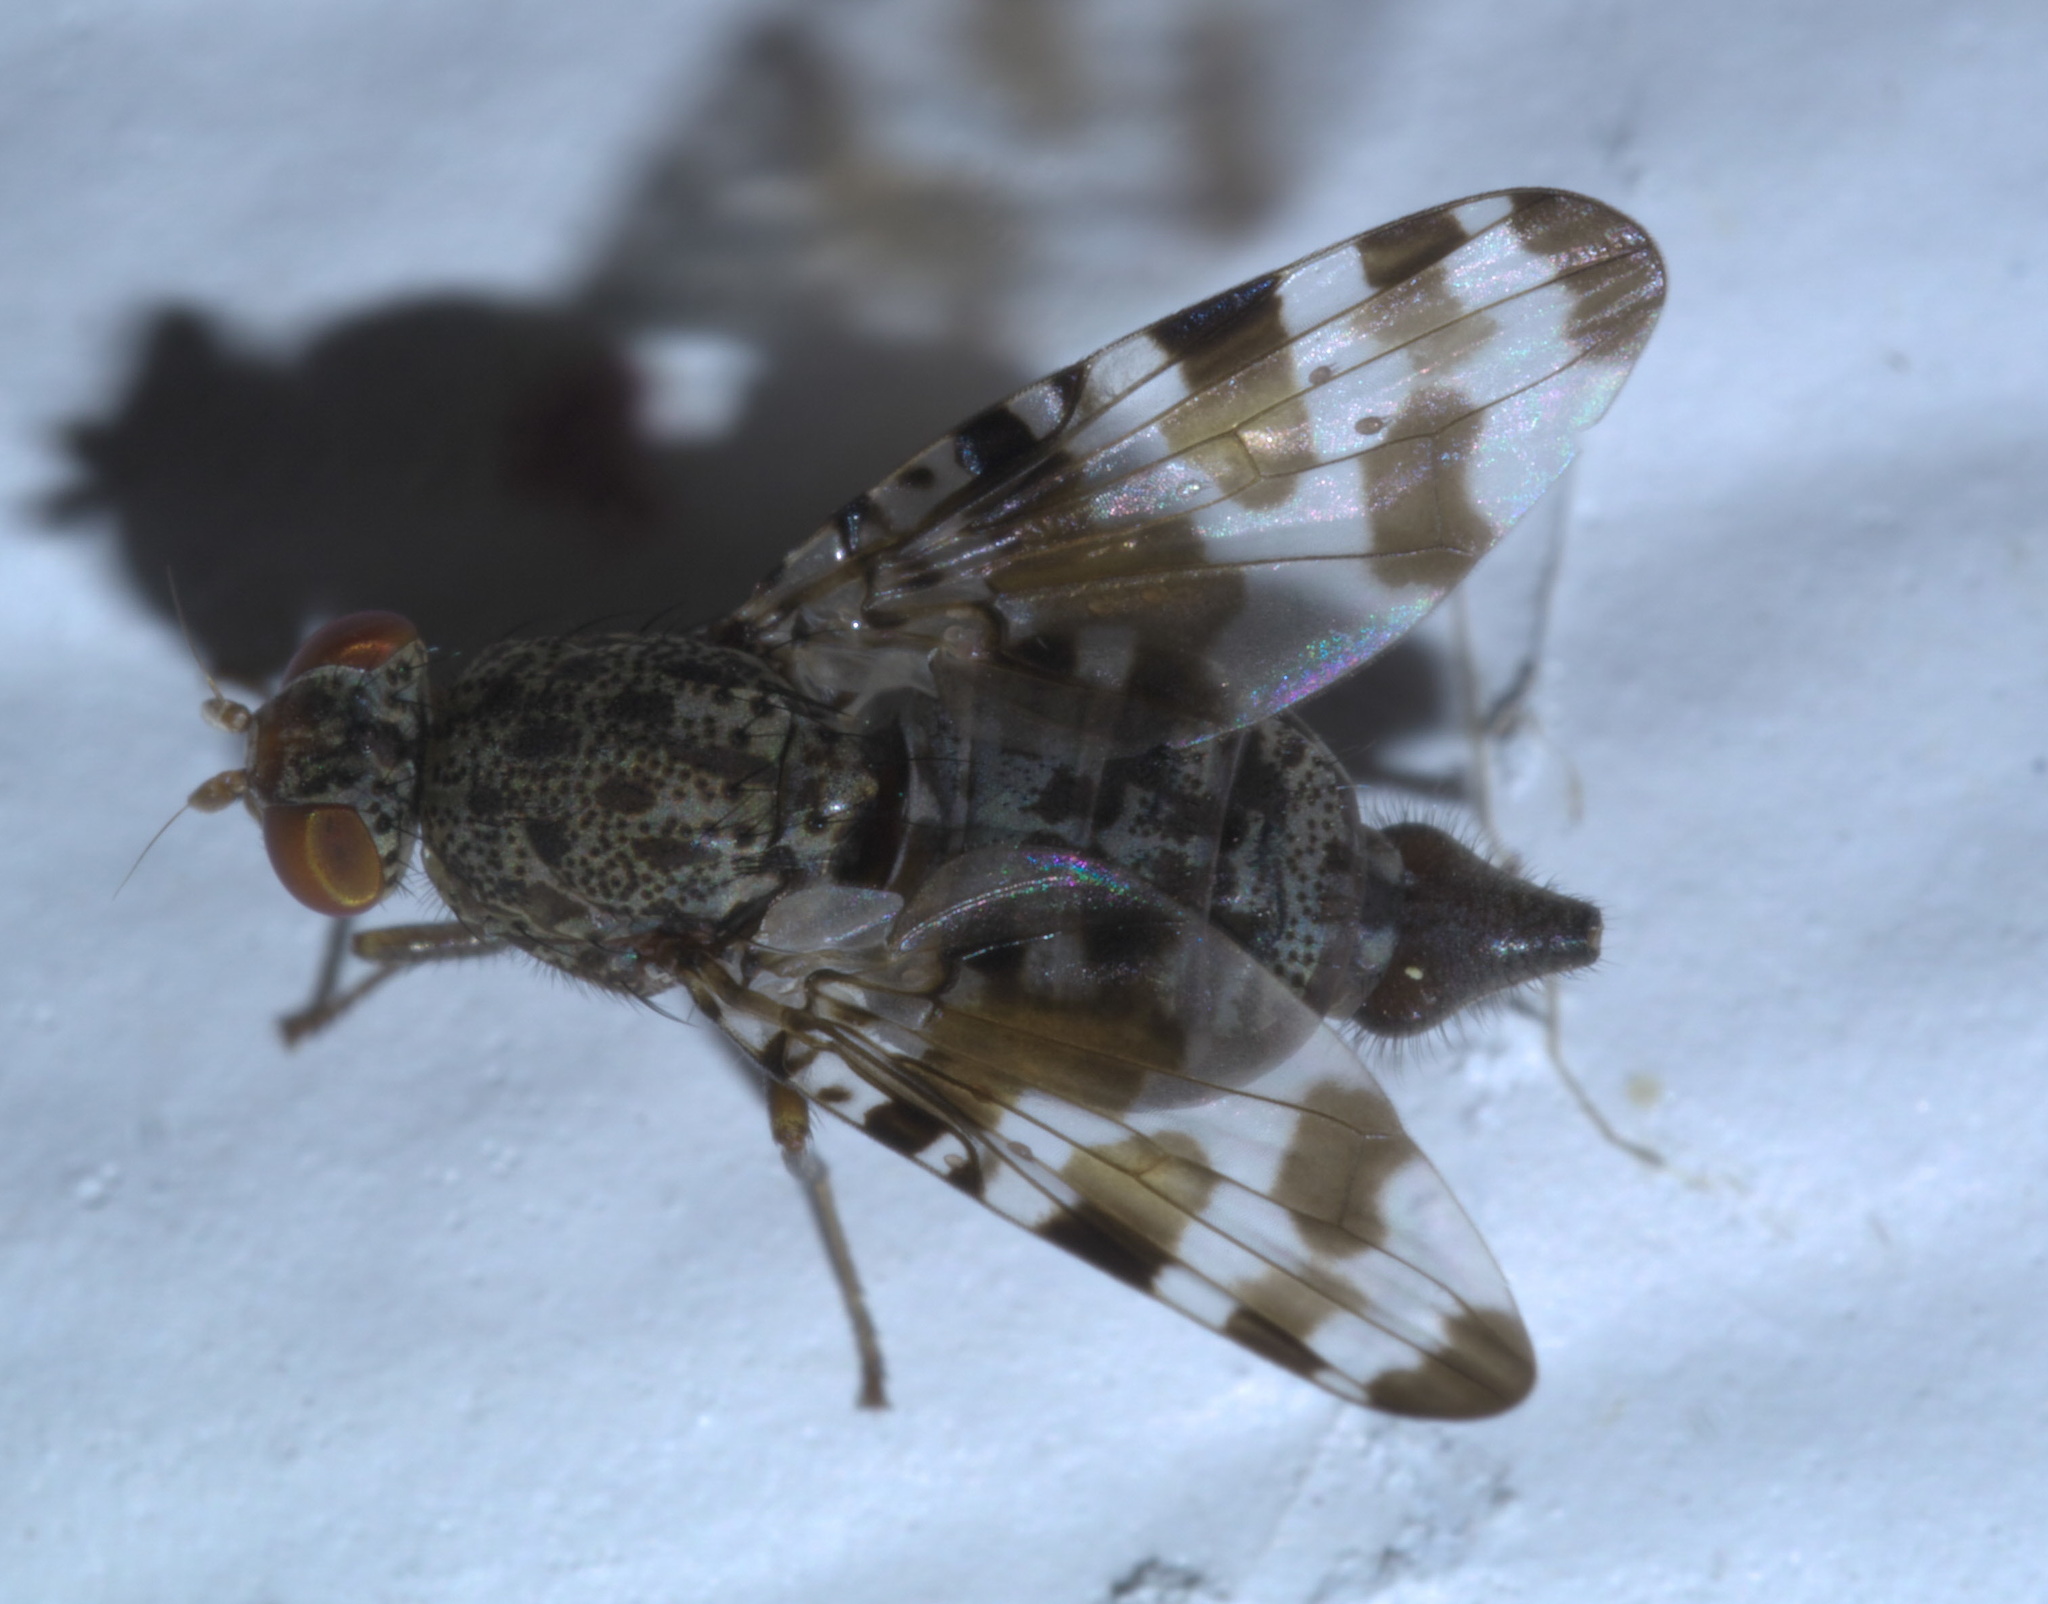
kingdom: Animalia
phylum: Arthropoda
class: Insecta
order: Diptera
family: Ulidiidae
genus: Pseudotephritis
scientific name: Pseudotephritis approximata
